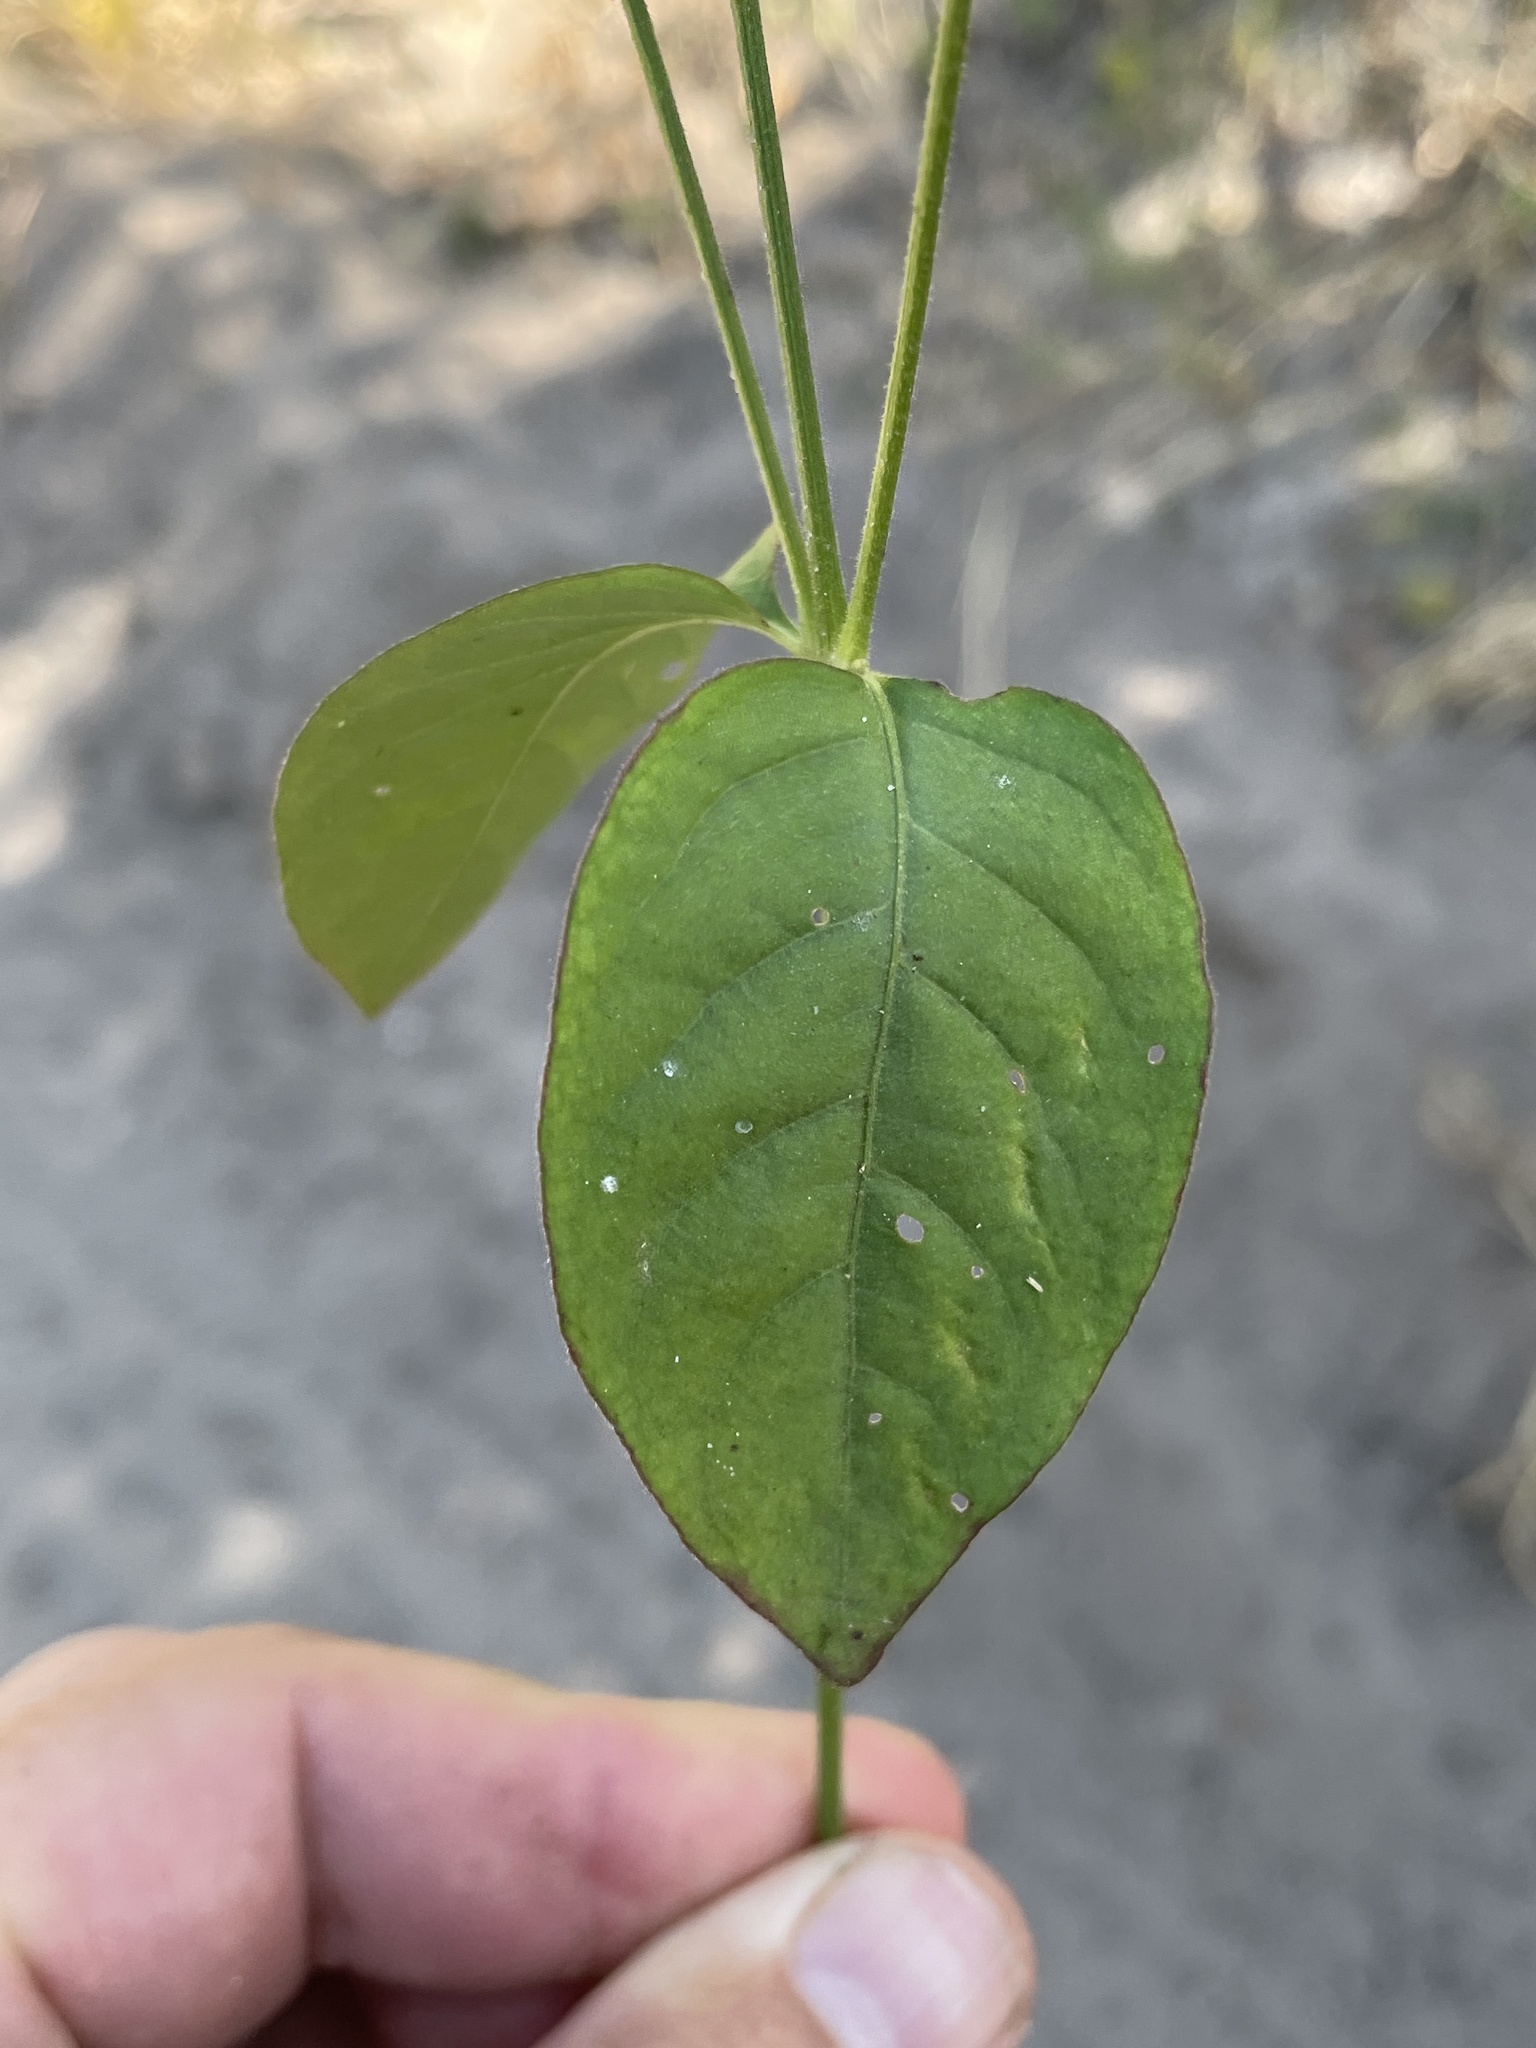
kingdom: Plantae
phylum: Tracheophyta
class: Magnoliopsida
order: Caryophyllales
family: Amaranthaceae
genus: Pupalia
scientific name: Pupalia lappacea
